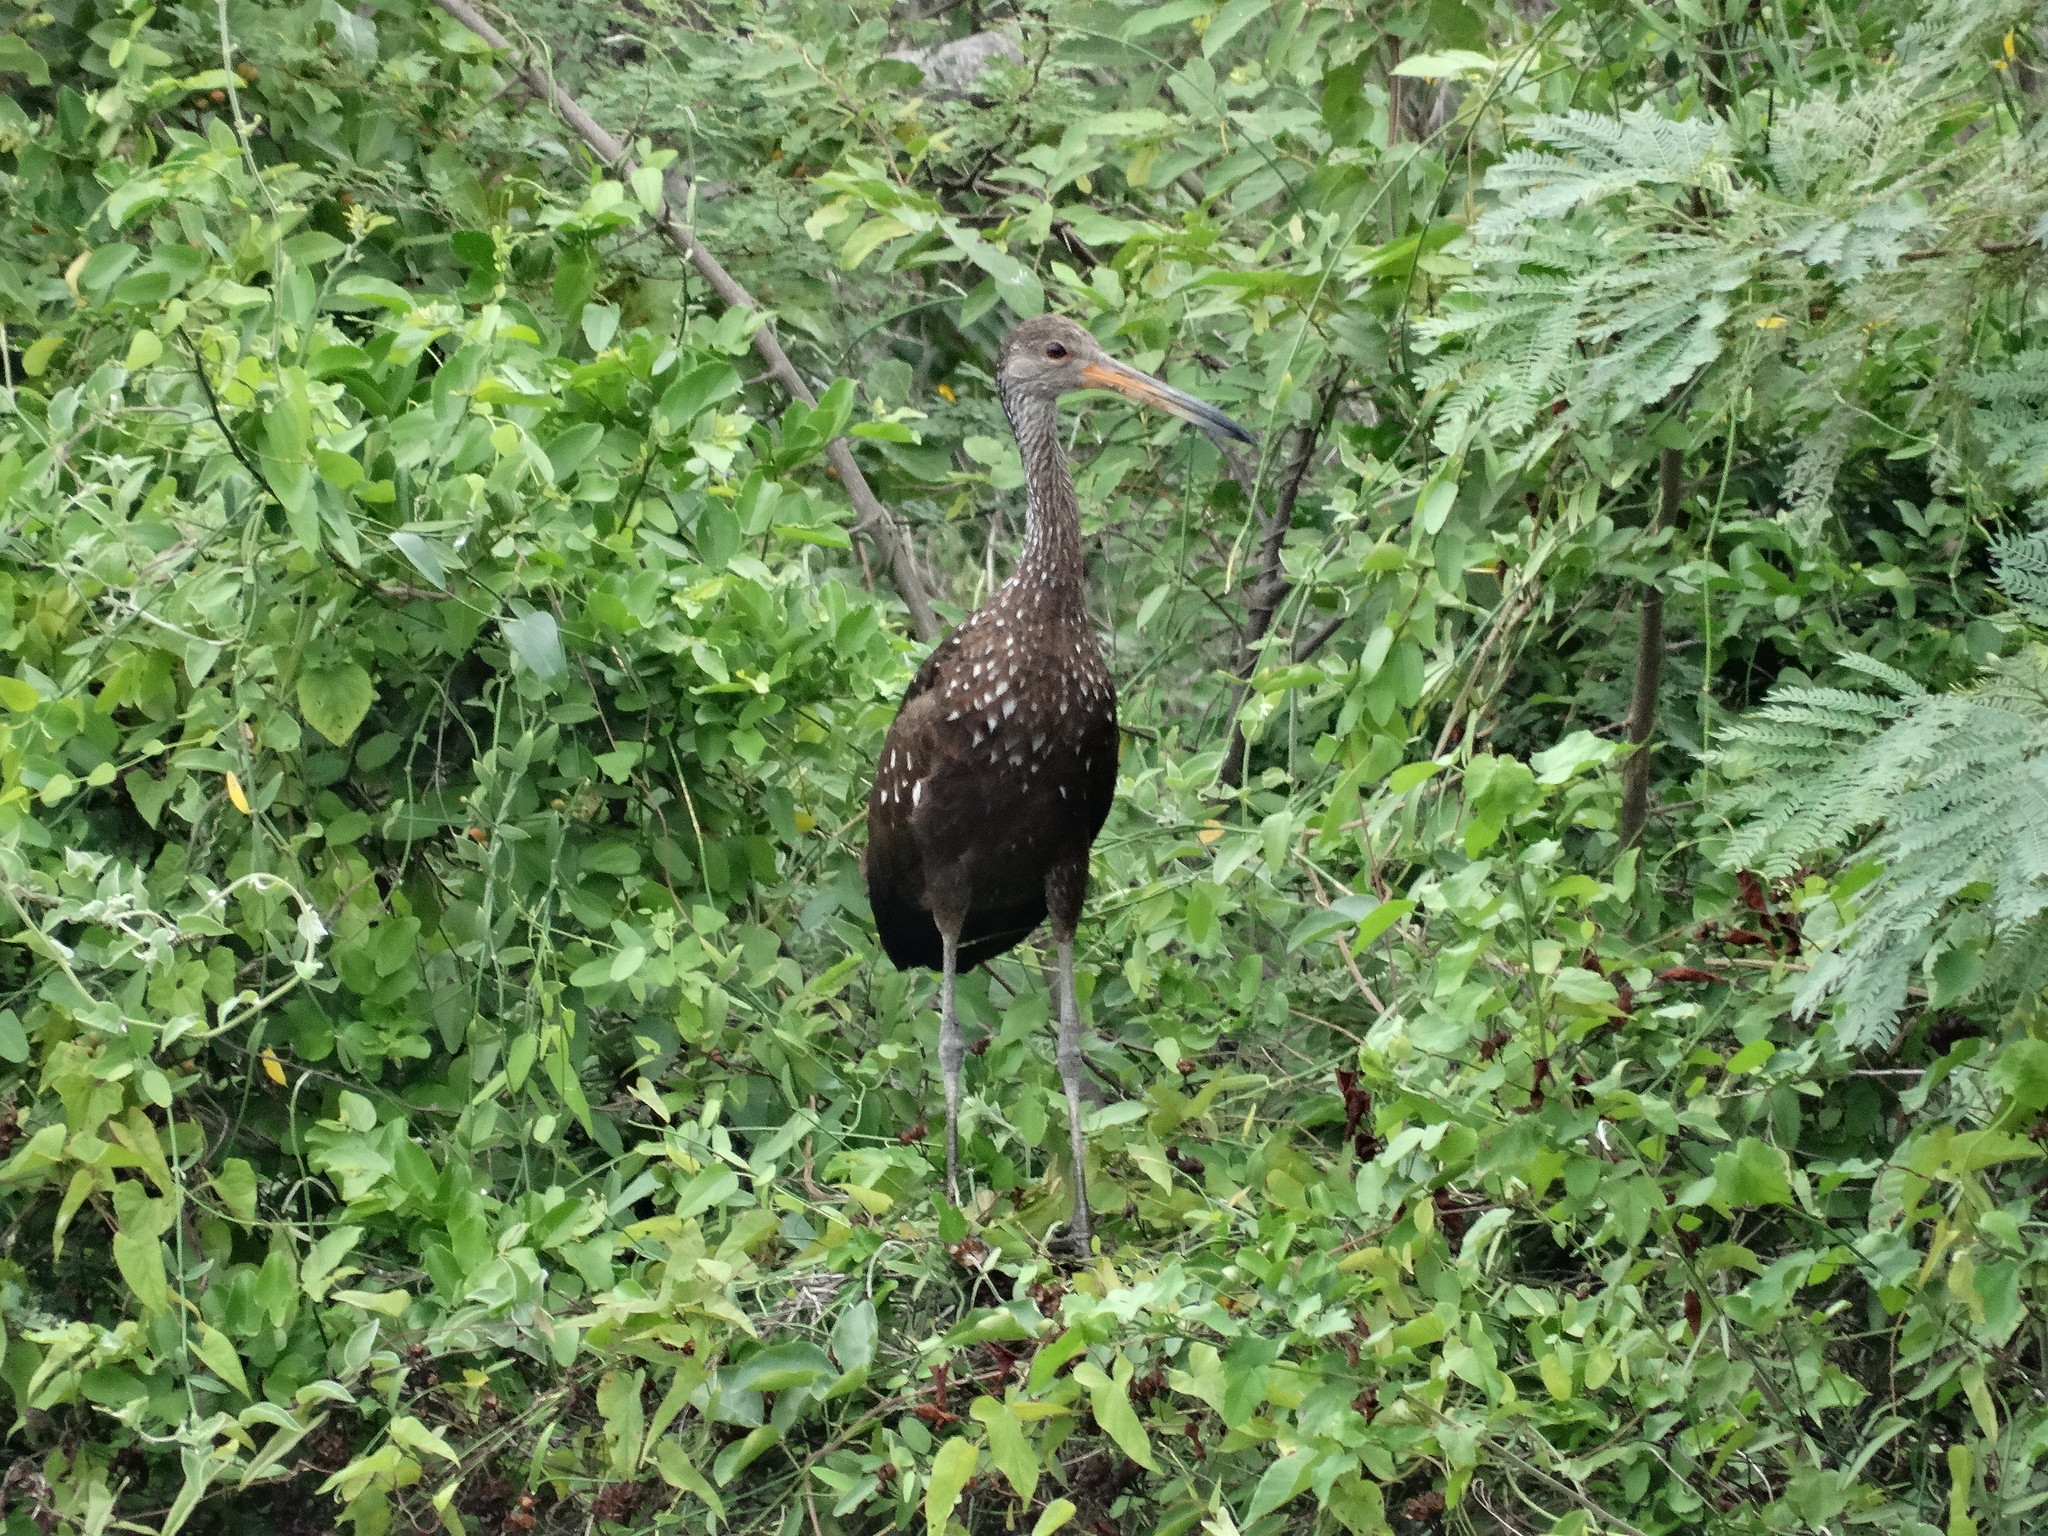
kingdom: Animalia
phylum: Chordata
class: Aves
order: Gruiformes
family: Aramidae
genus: Aramus
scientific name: Aramus guarauna
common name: Limpkin
